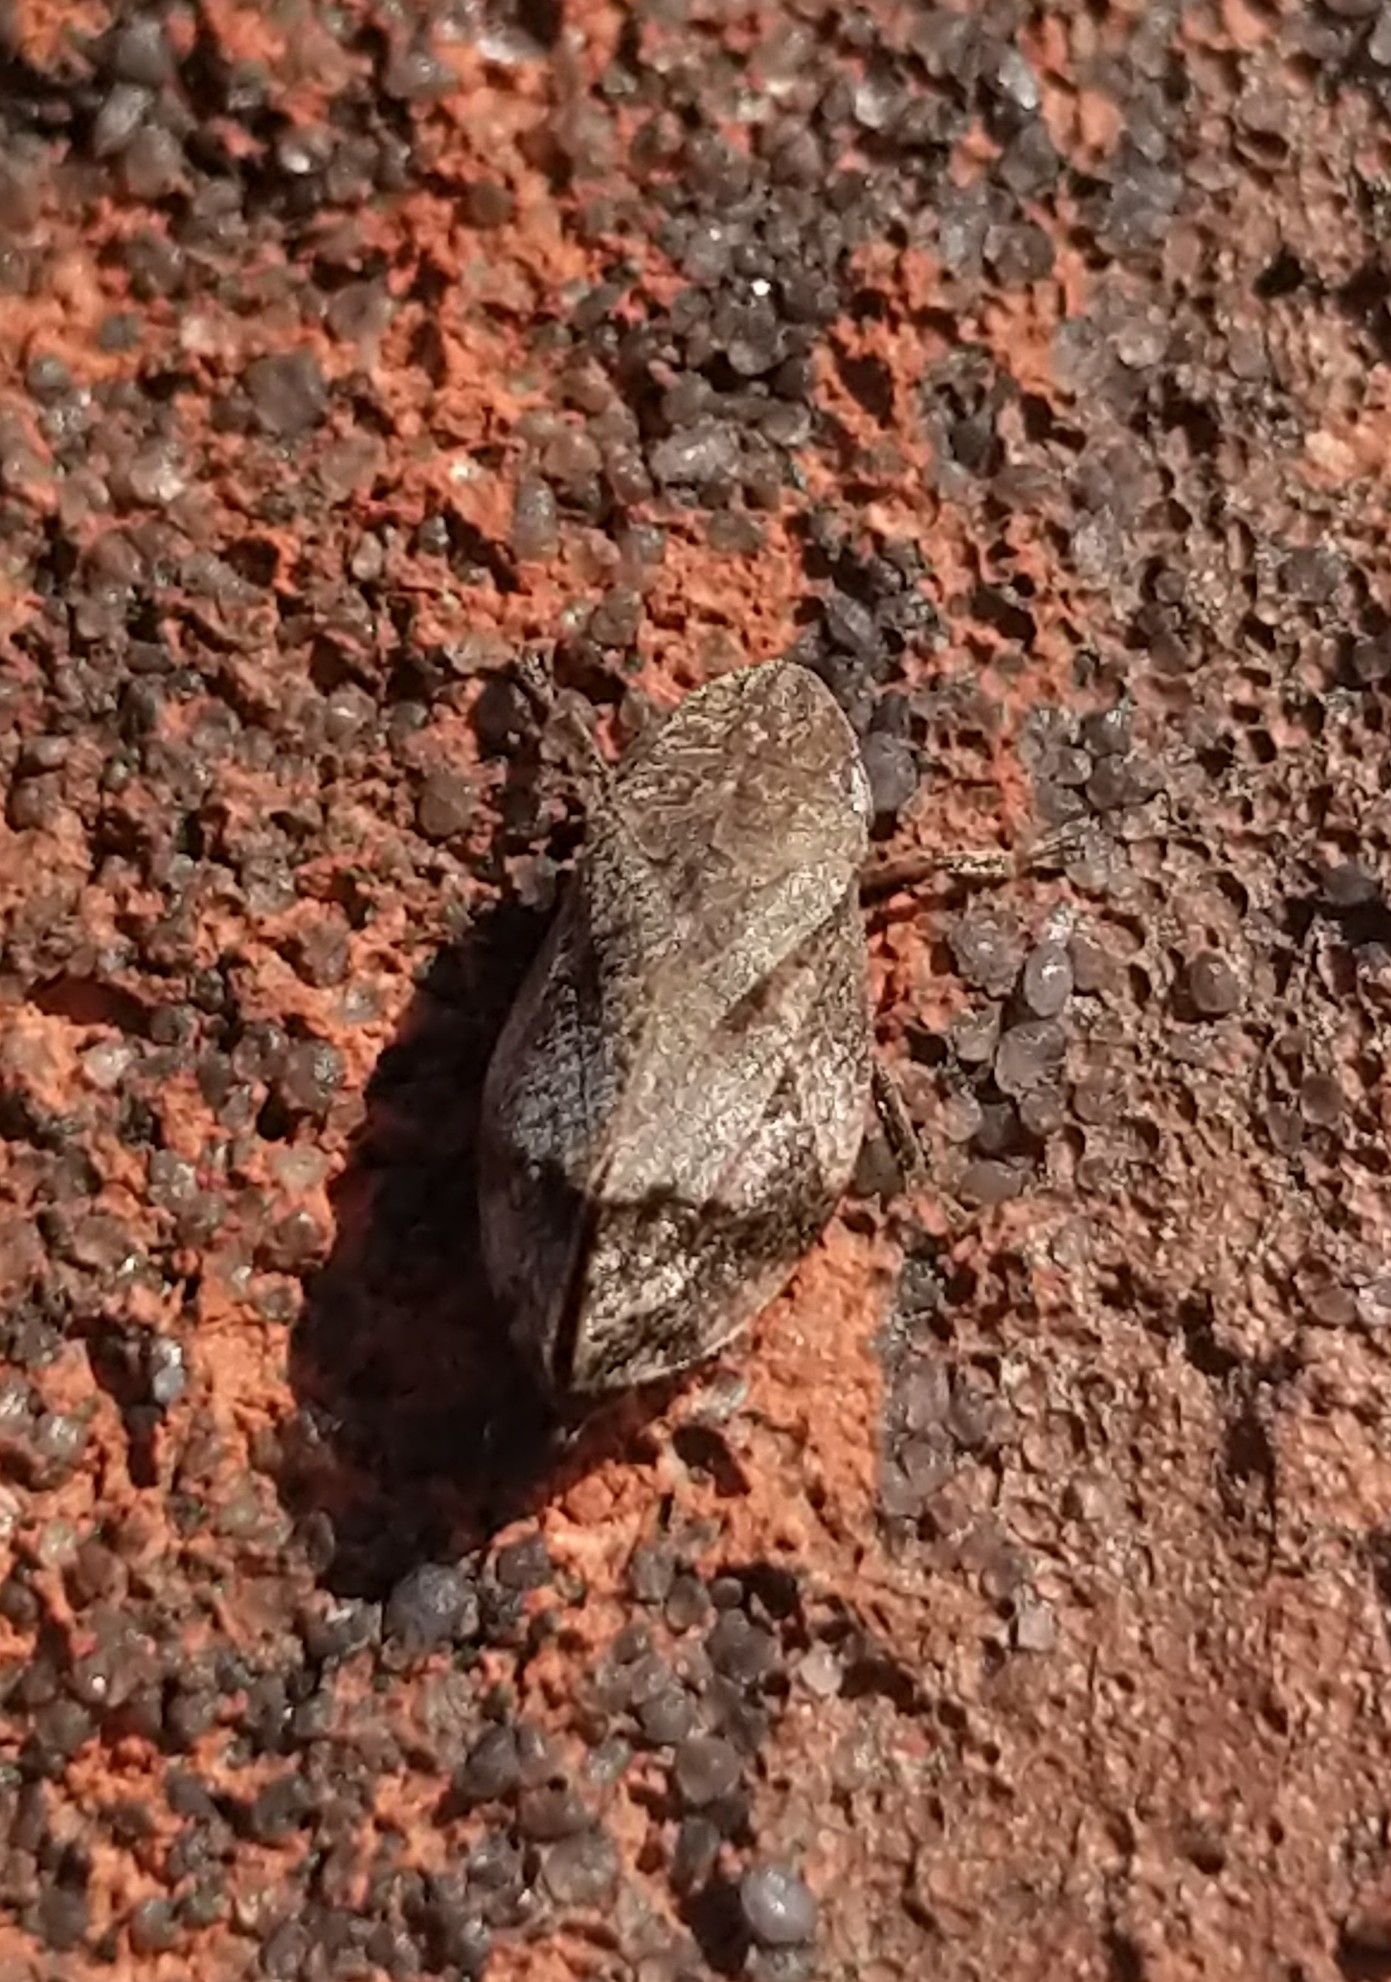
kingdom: Animalia
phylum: Arthropoda
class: Insecta
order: Hemiptera
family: Aphrophoridae
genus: Lepyronia
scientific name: Lepyronia quadrangularis
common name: Diamond-backed spittlebug
